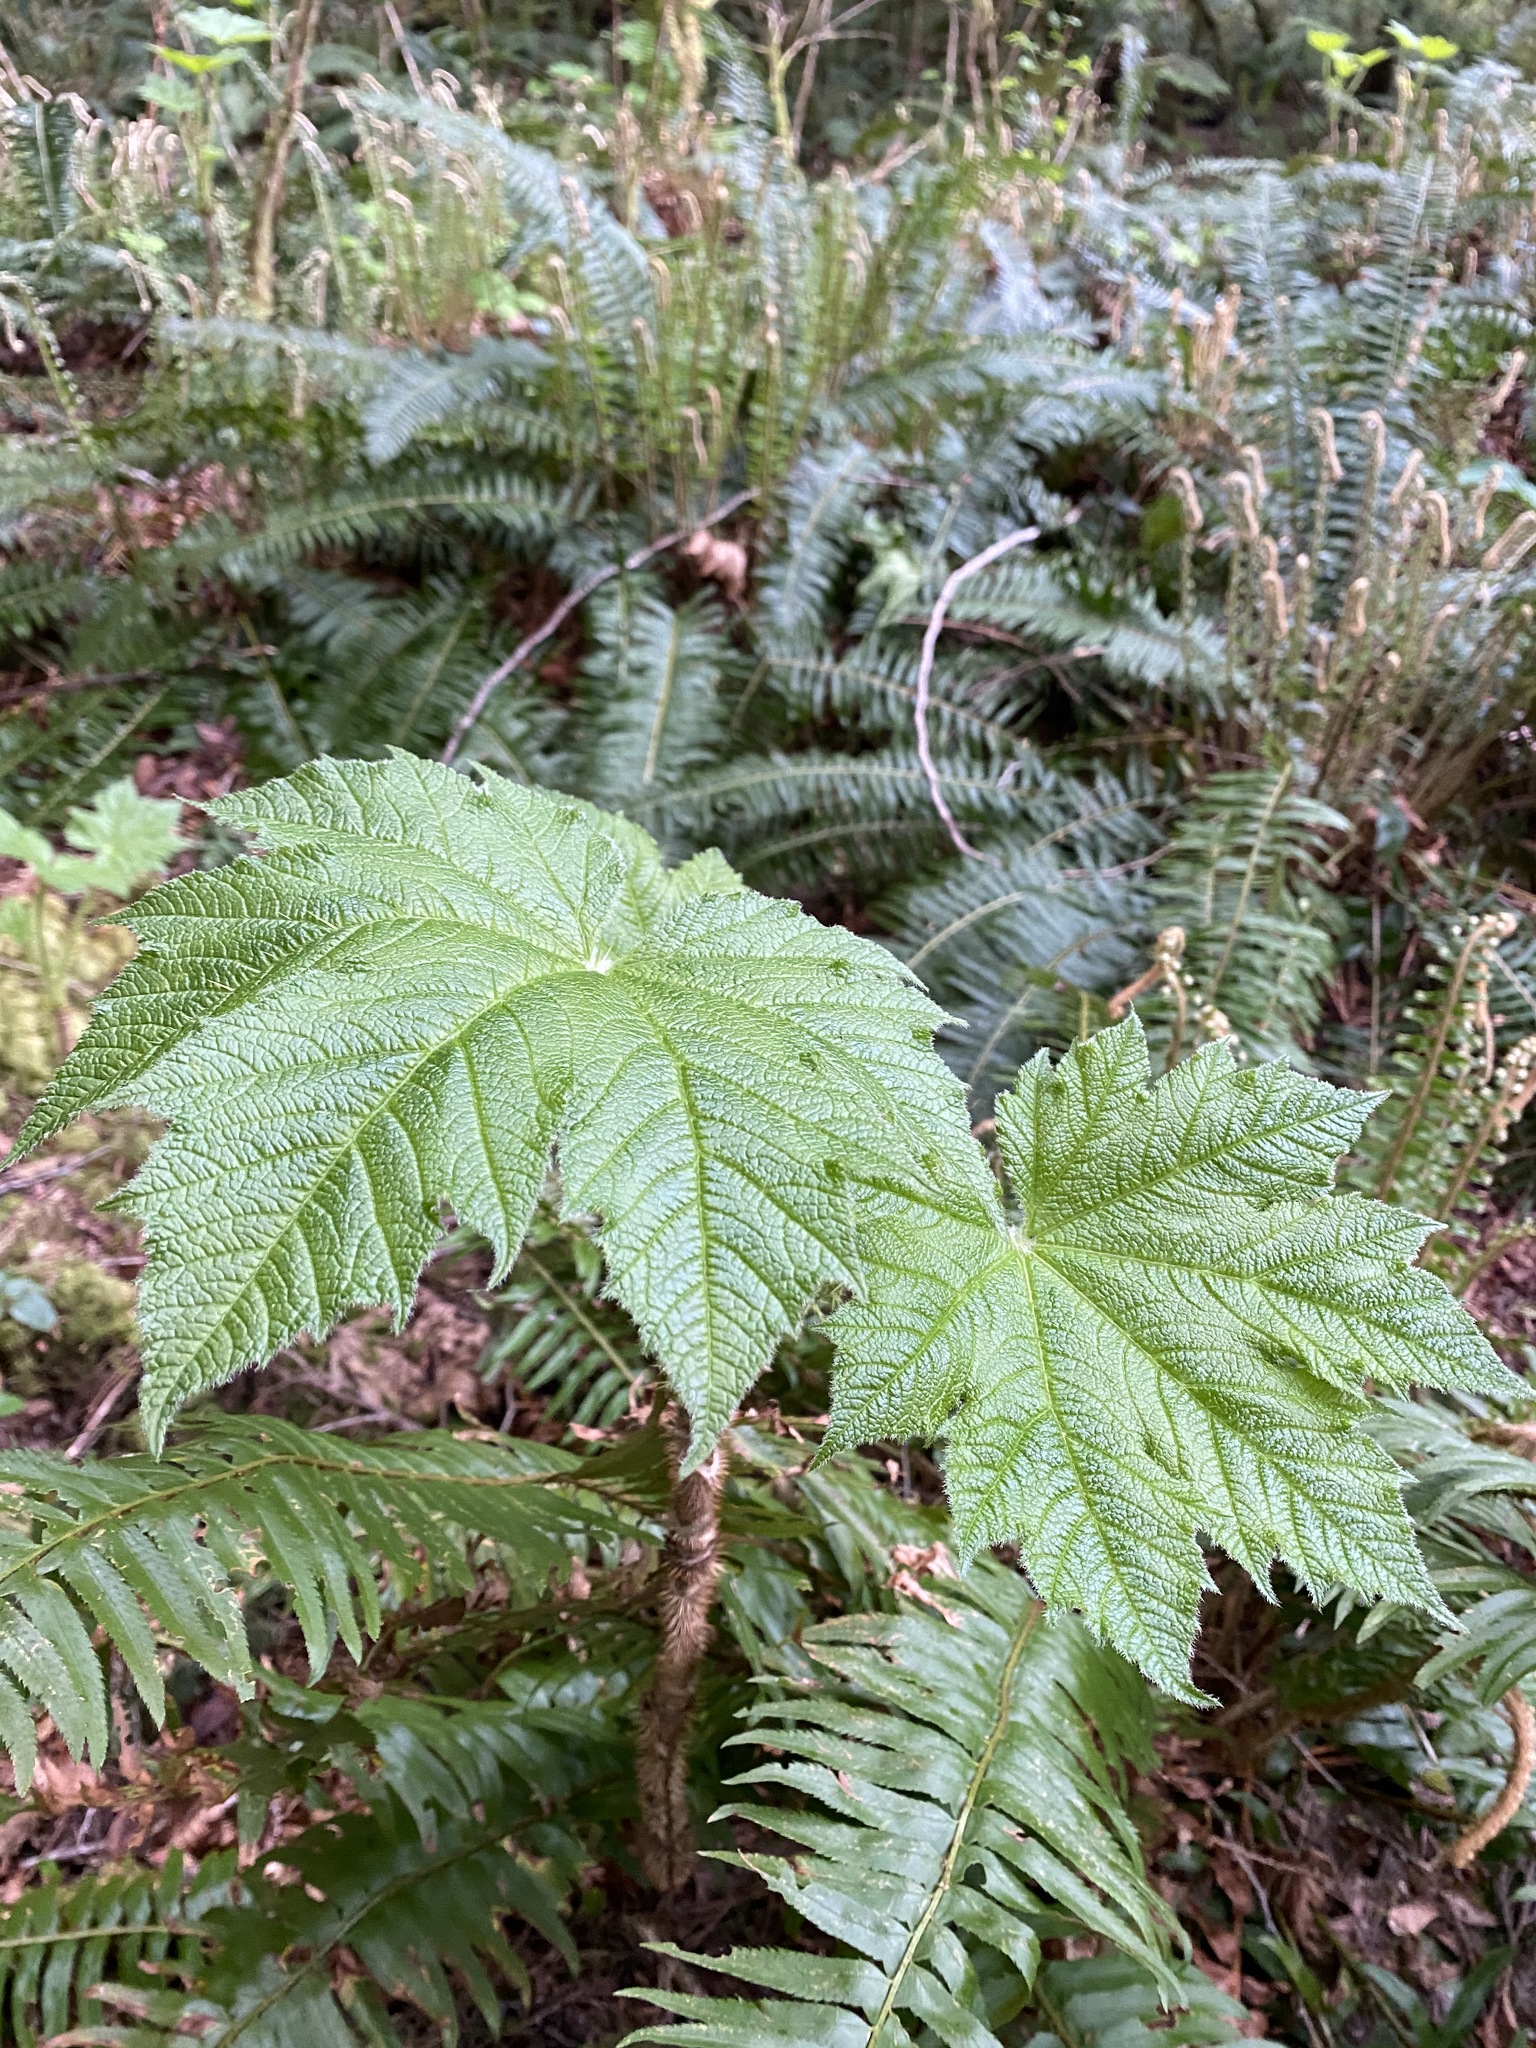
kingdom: Plantae
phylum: Tracheophyta
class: Magnoliopsida
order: Apiales
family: Araliaceae
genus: Oplopanax
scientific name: Oplopanax horridus
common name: Devil's walking-stick
